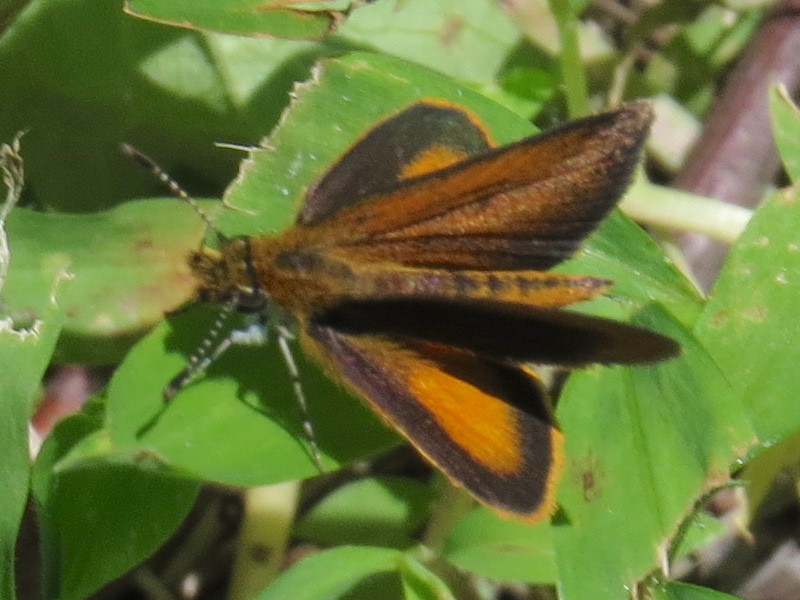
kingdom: Animalia
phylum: Arthropoda
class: Insecta
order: Lepidoptera
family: Hesperiidae
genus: Ancyloxypha
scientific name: Ancyloxypha numitor
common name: Least skipper
